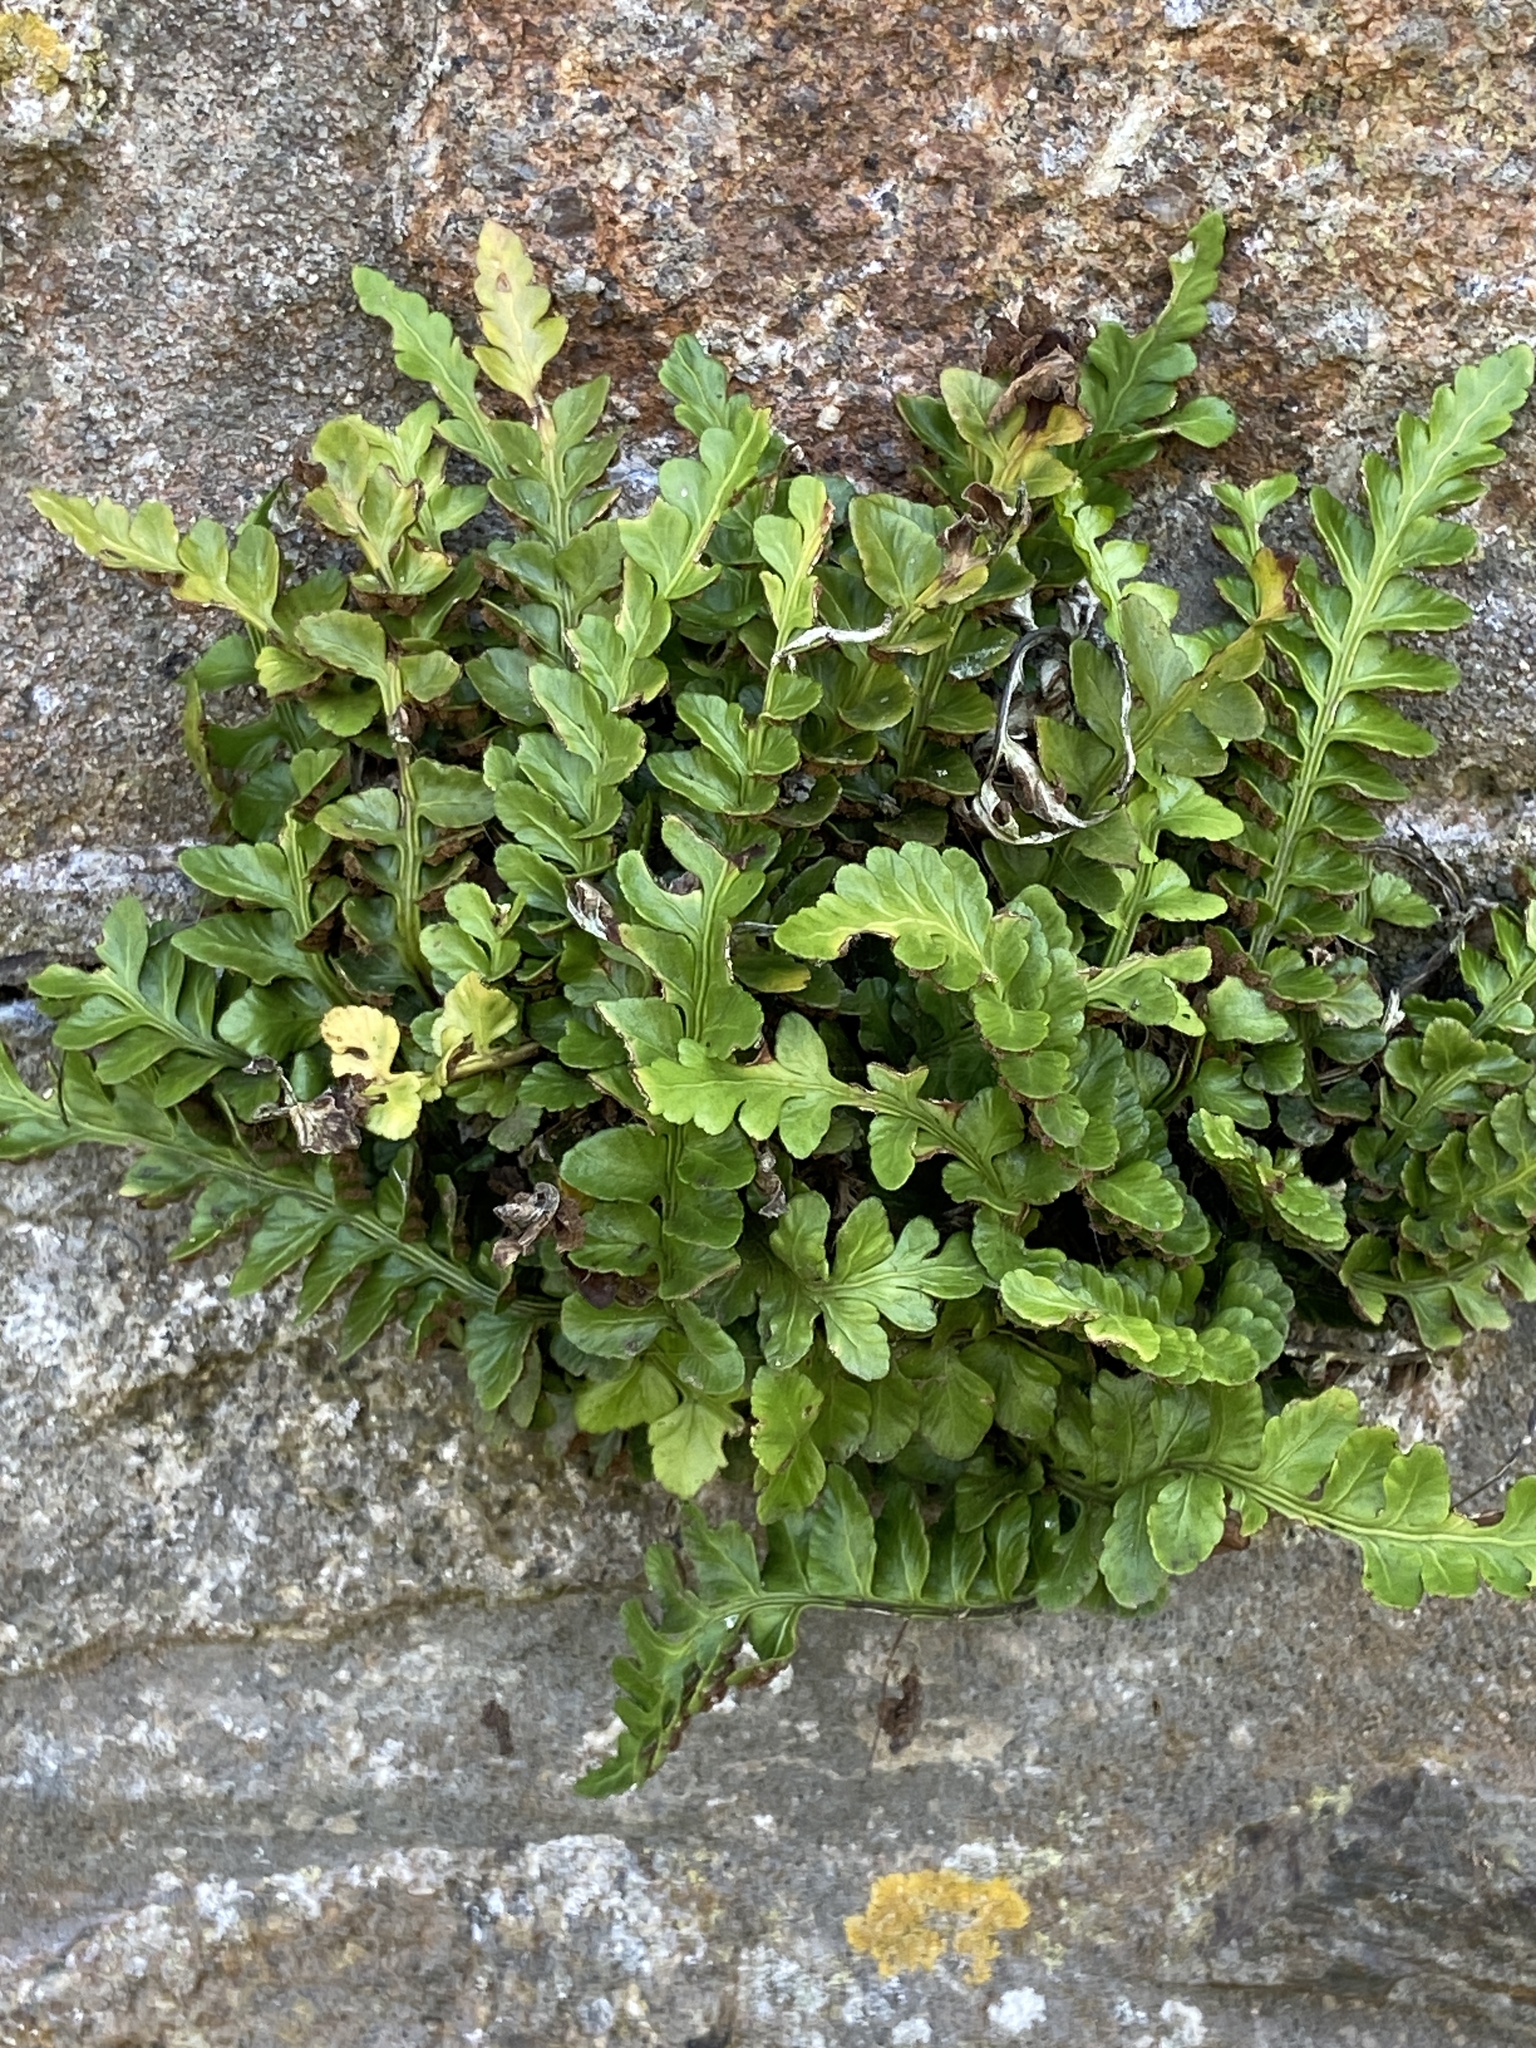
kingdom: Plantae
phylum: Tracheophyta
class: Polypodiopsida
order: Polypodiales
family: Aspleniaceae
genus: Asplenium
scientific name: Asplenium marinum
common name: Sea spleenwort
